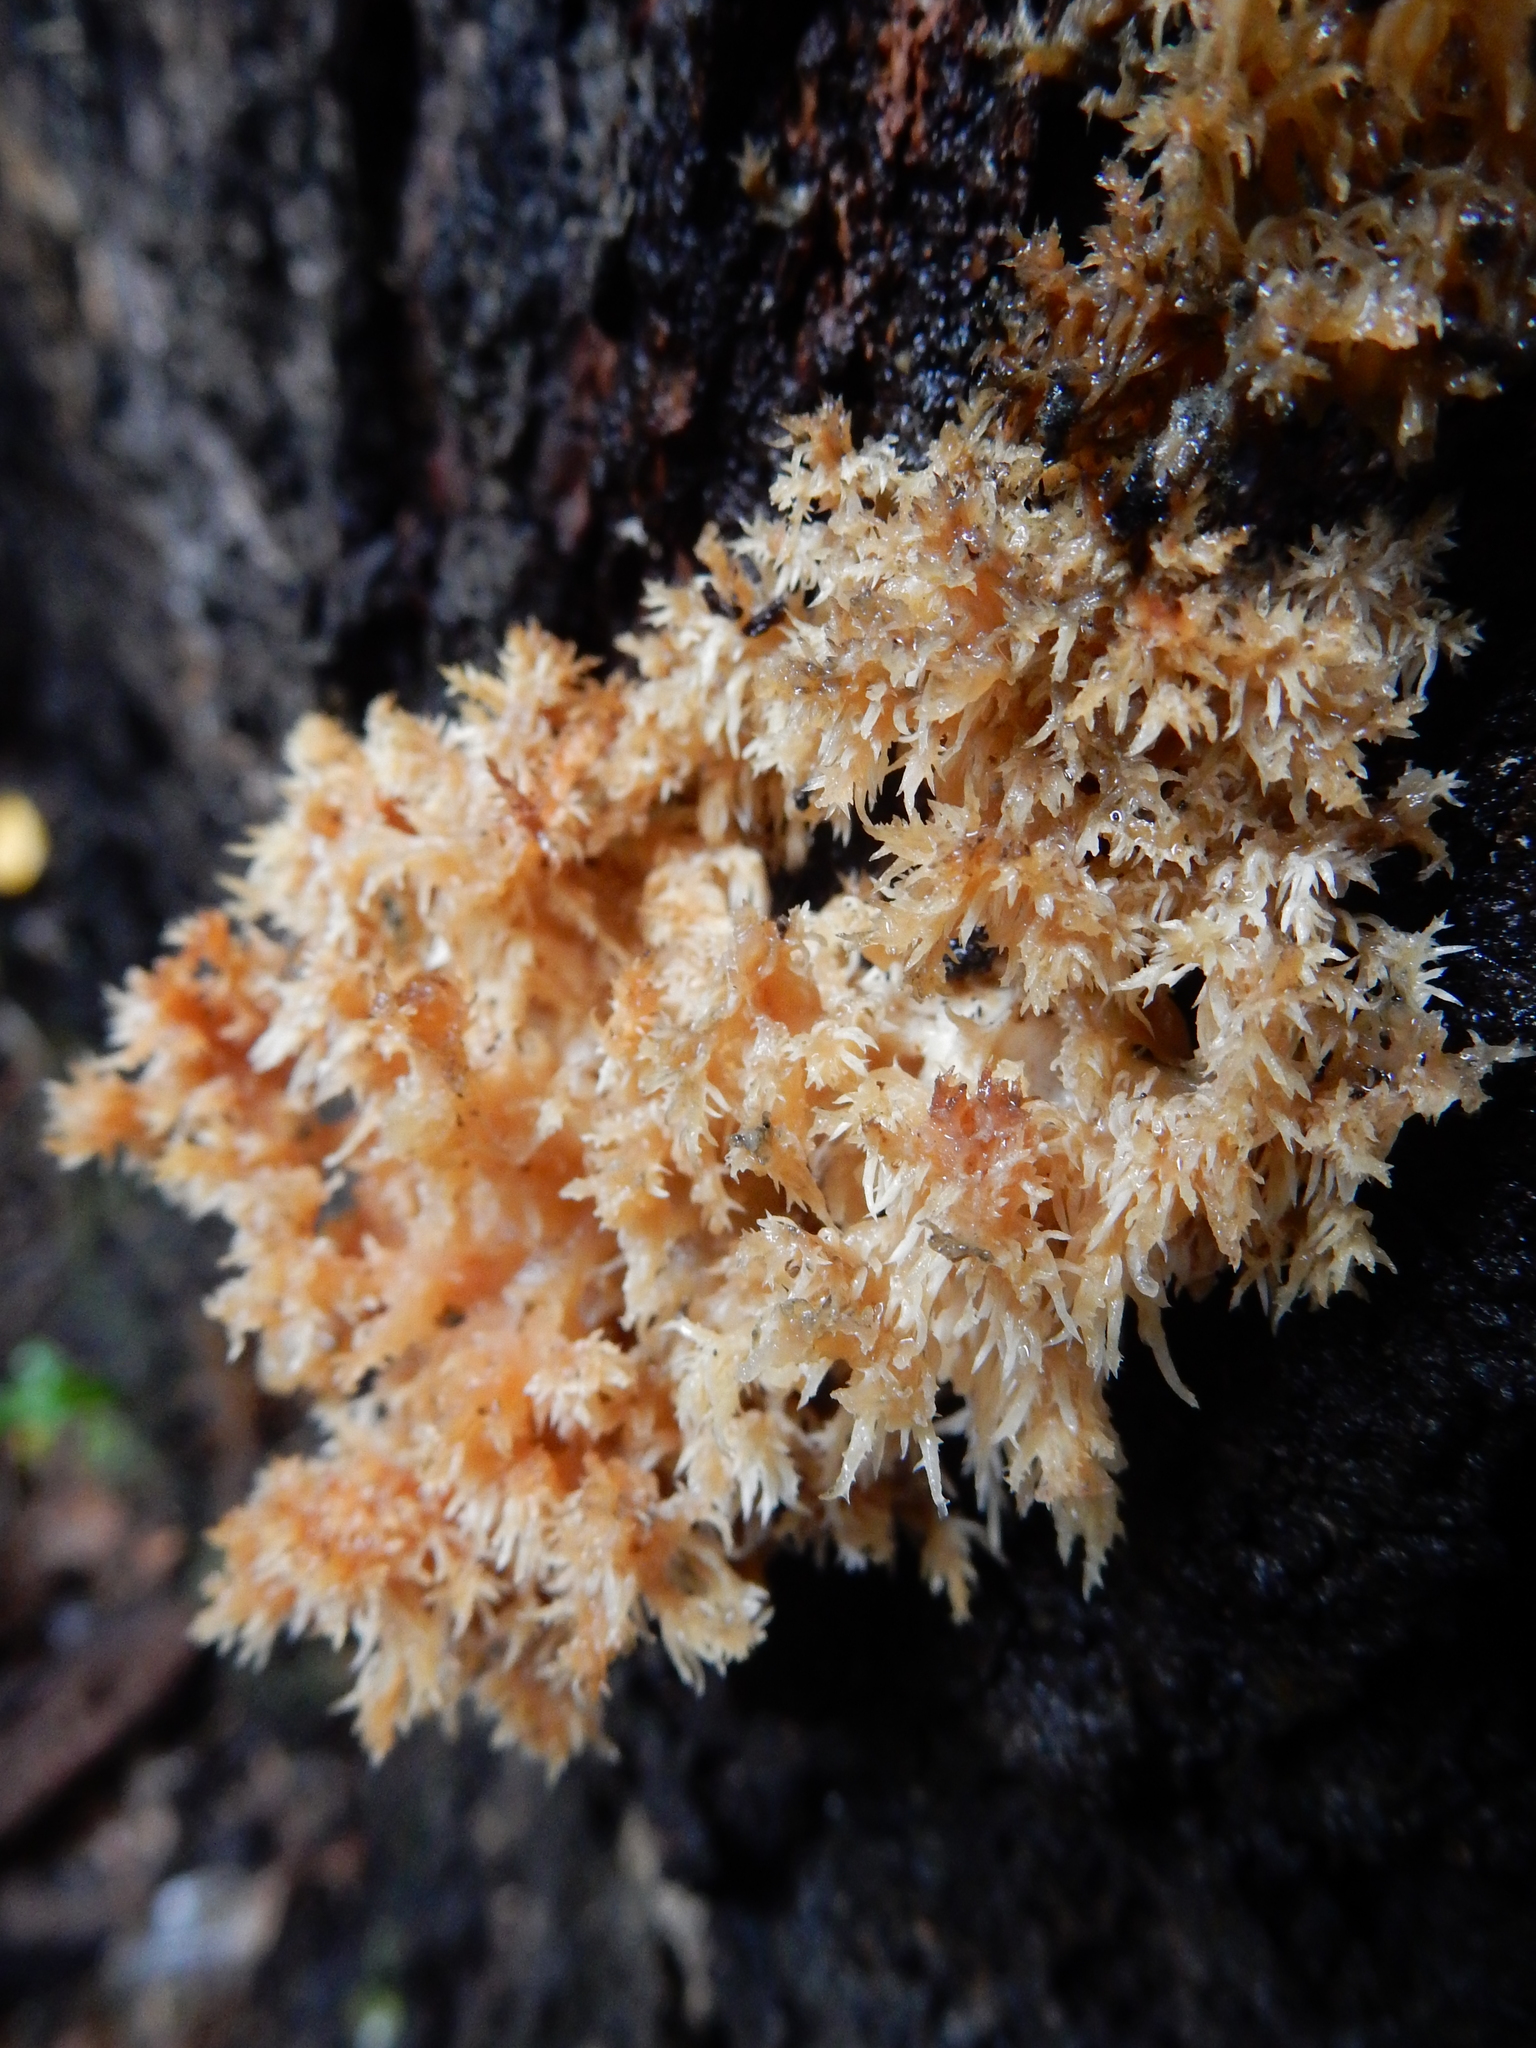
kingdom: Fungi
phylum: Basidiomycota
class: Agaricomycetes
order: Russulales
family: Hericiaceae
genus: Hericium
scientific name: Hericium novae-zealandiae
